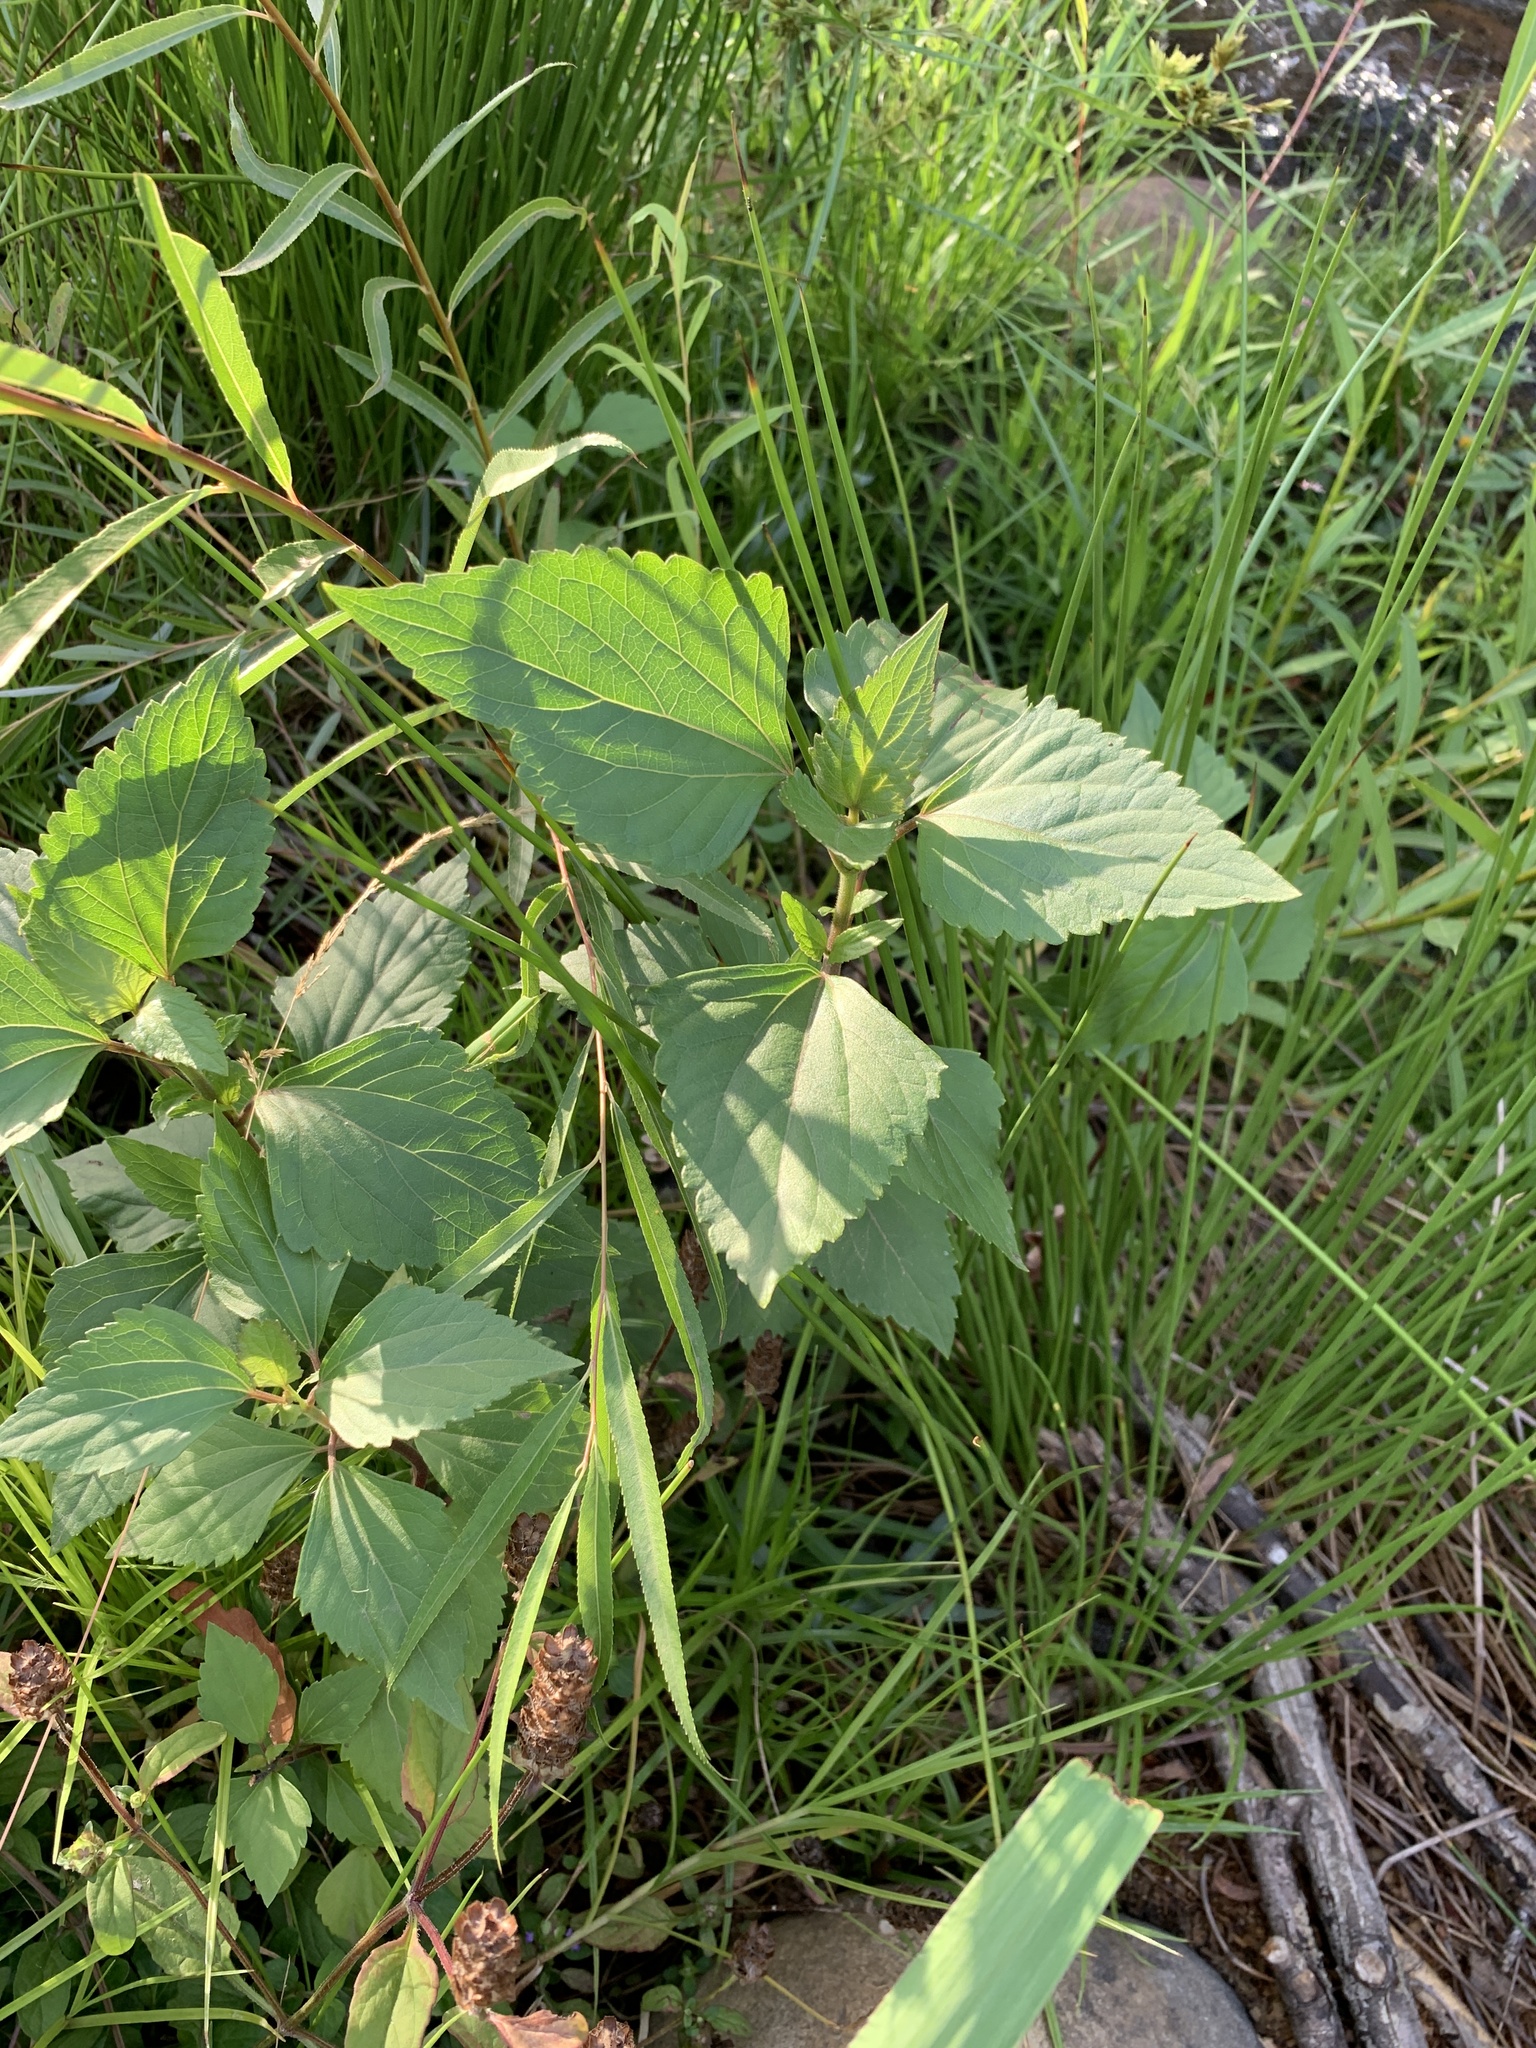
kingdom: Plantae
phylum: Tracheophyta
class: Magnoliopsida
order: Asterales
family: Asteraceae
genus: Ageratina
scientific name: Ageratina adenophora
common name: Sticky snakeroot
